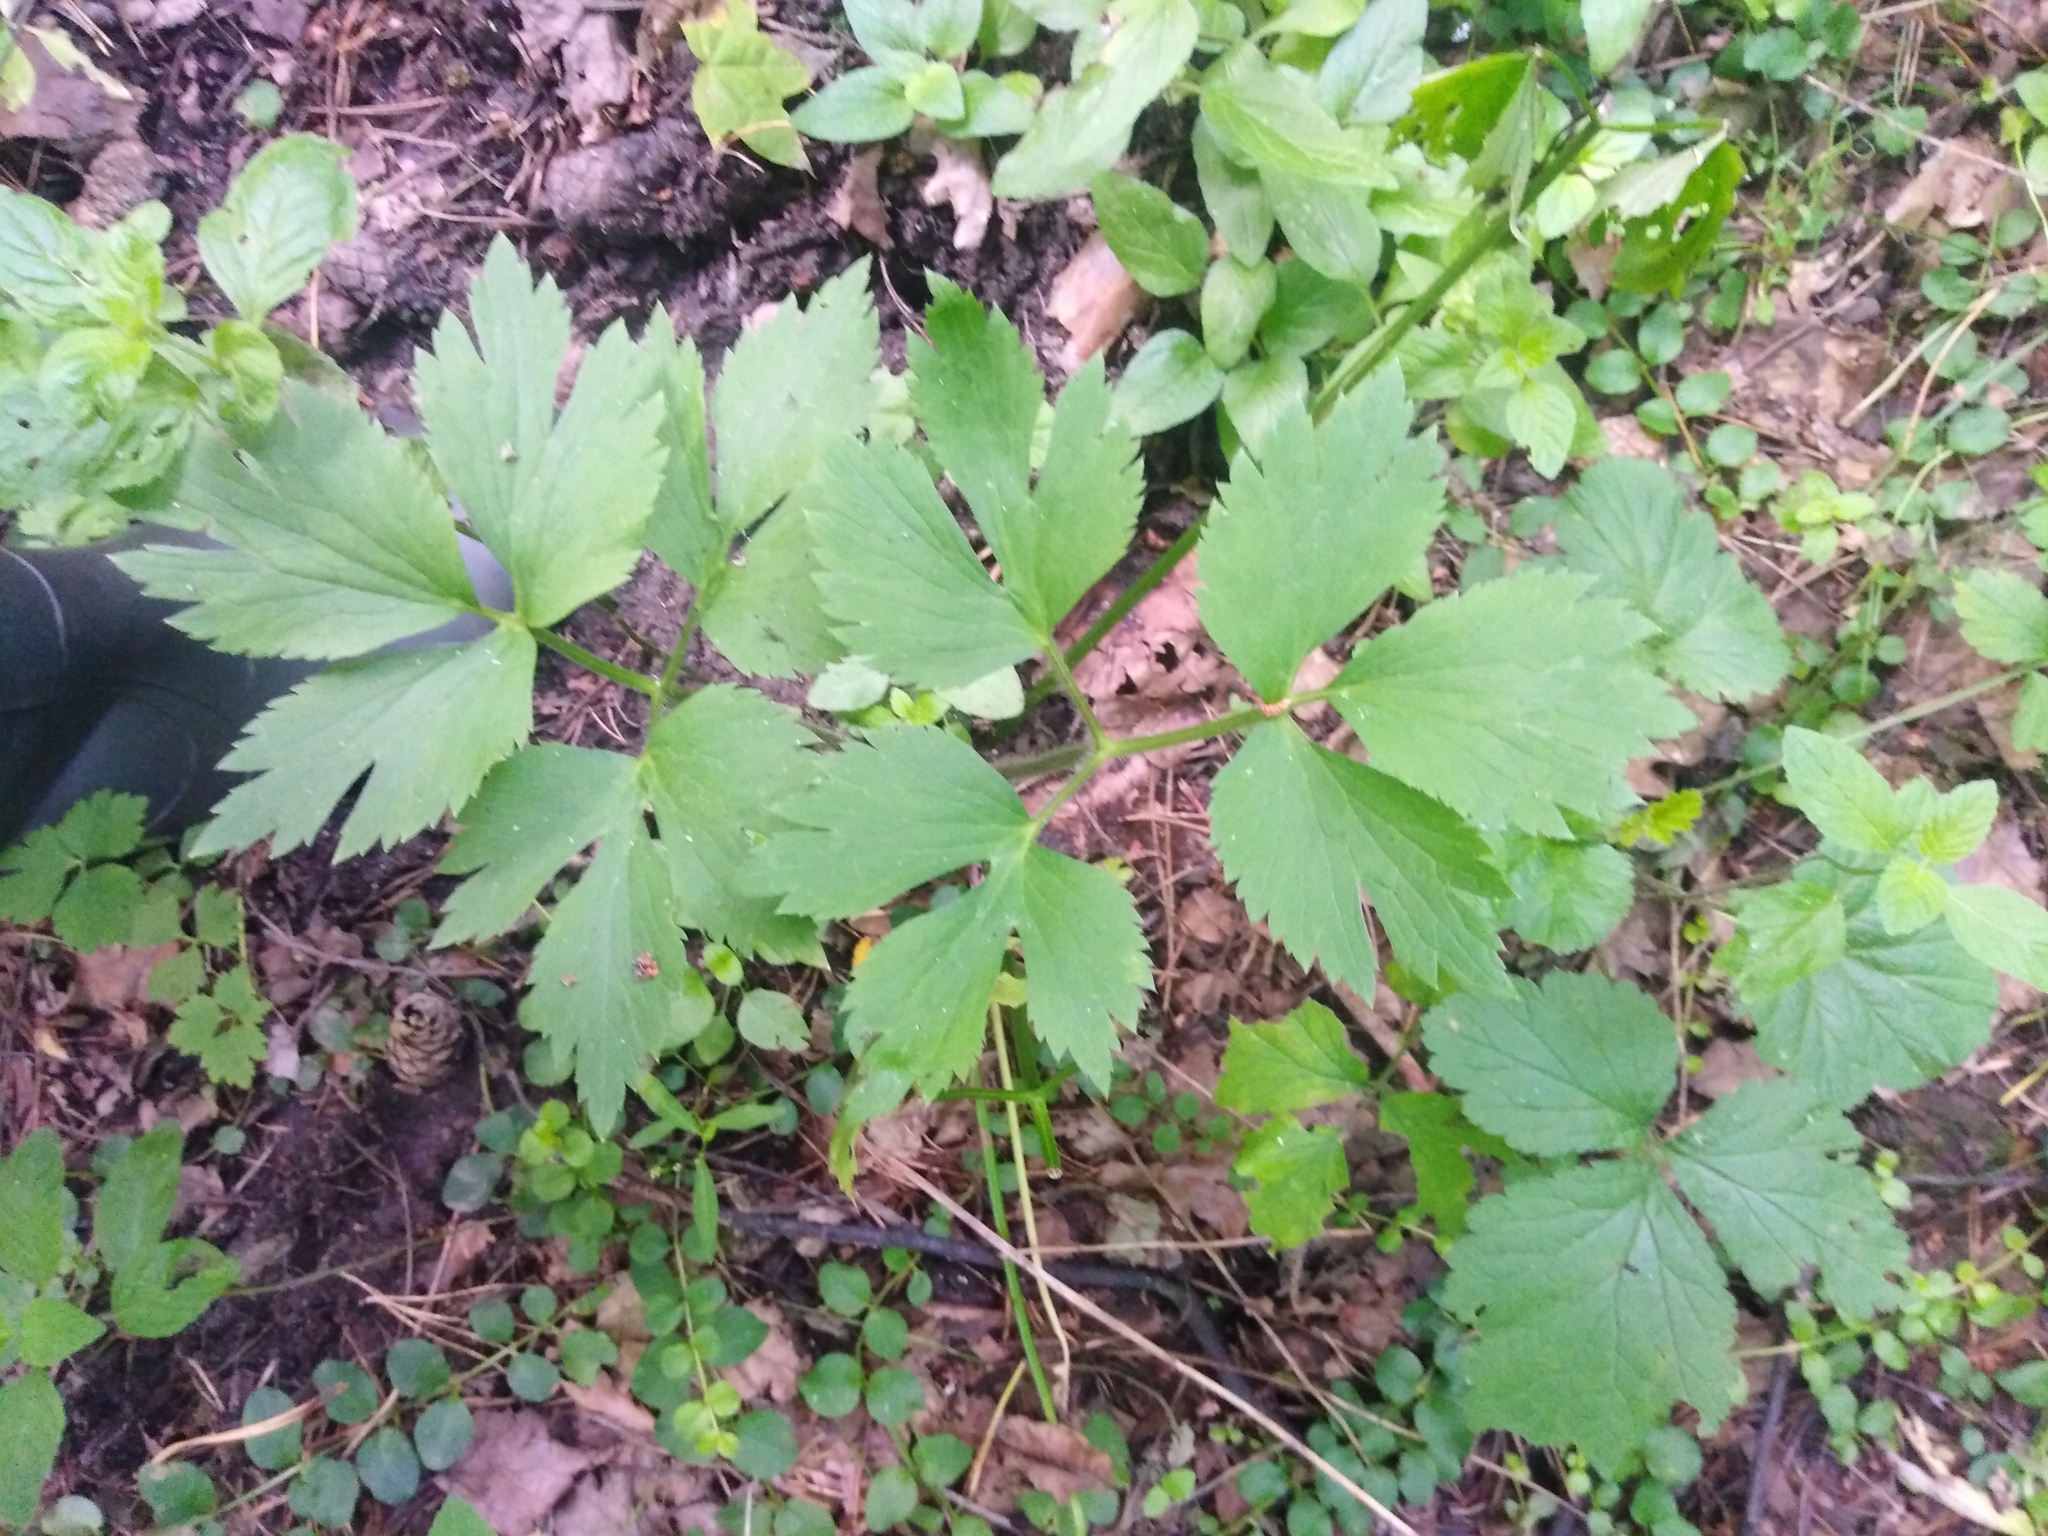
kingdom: Plantae
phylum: Tracheophyta
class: Magnoliopsida
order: Ranunculales
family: Ranunculaceae
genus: Ranunculus
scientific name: Ranunculus repens
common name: Creeping buttercup
